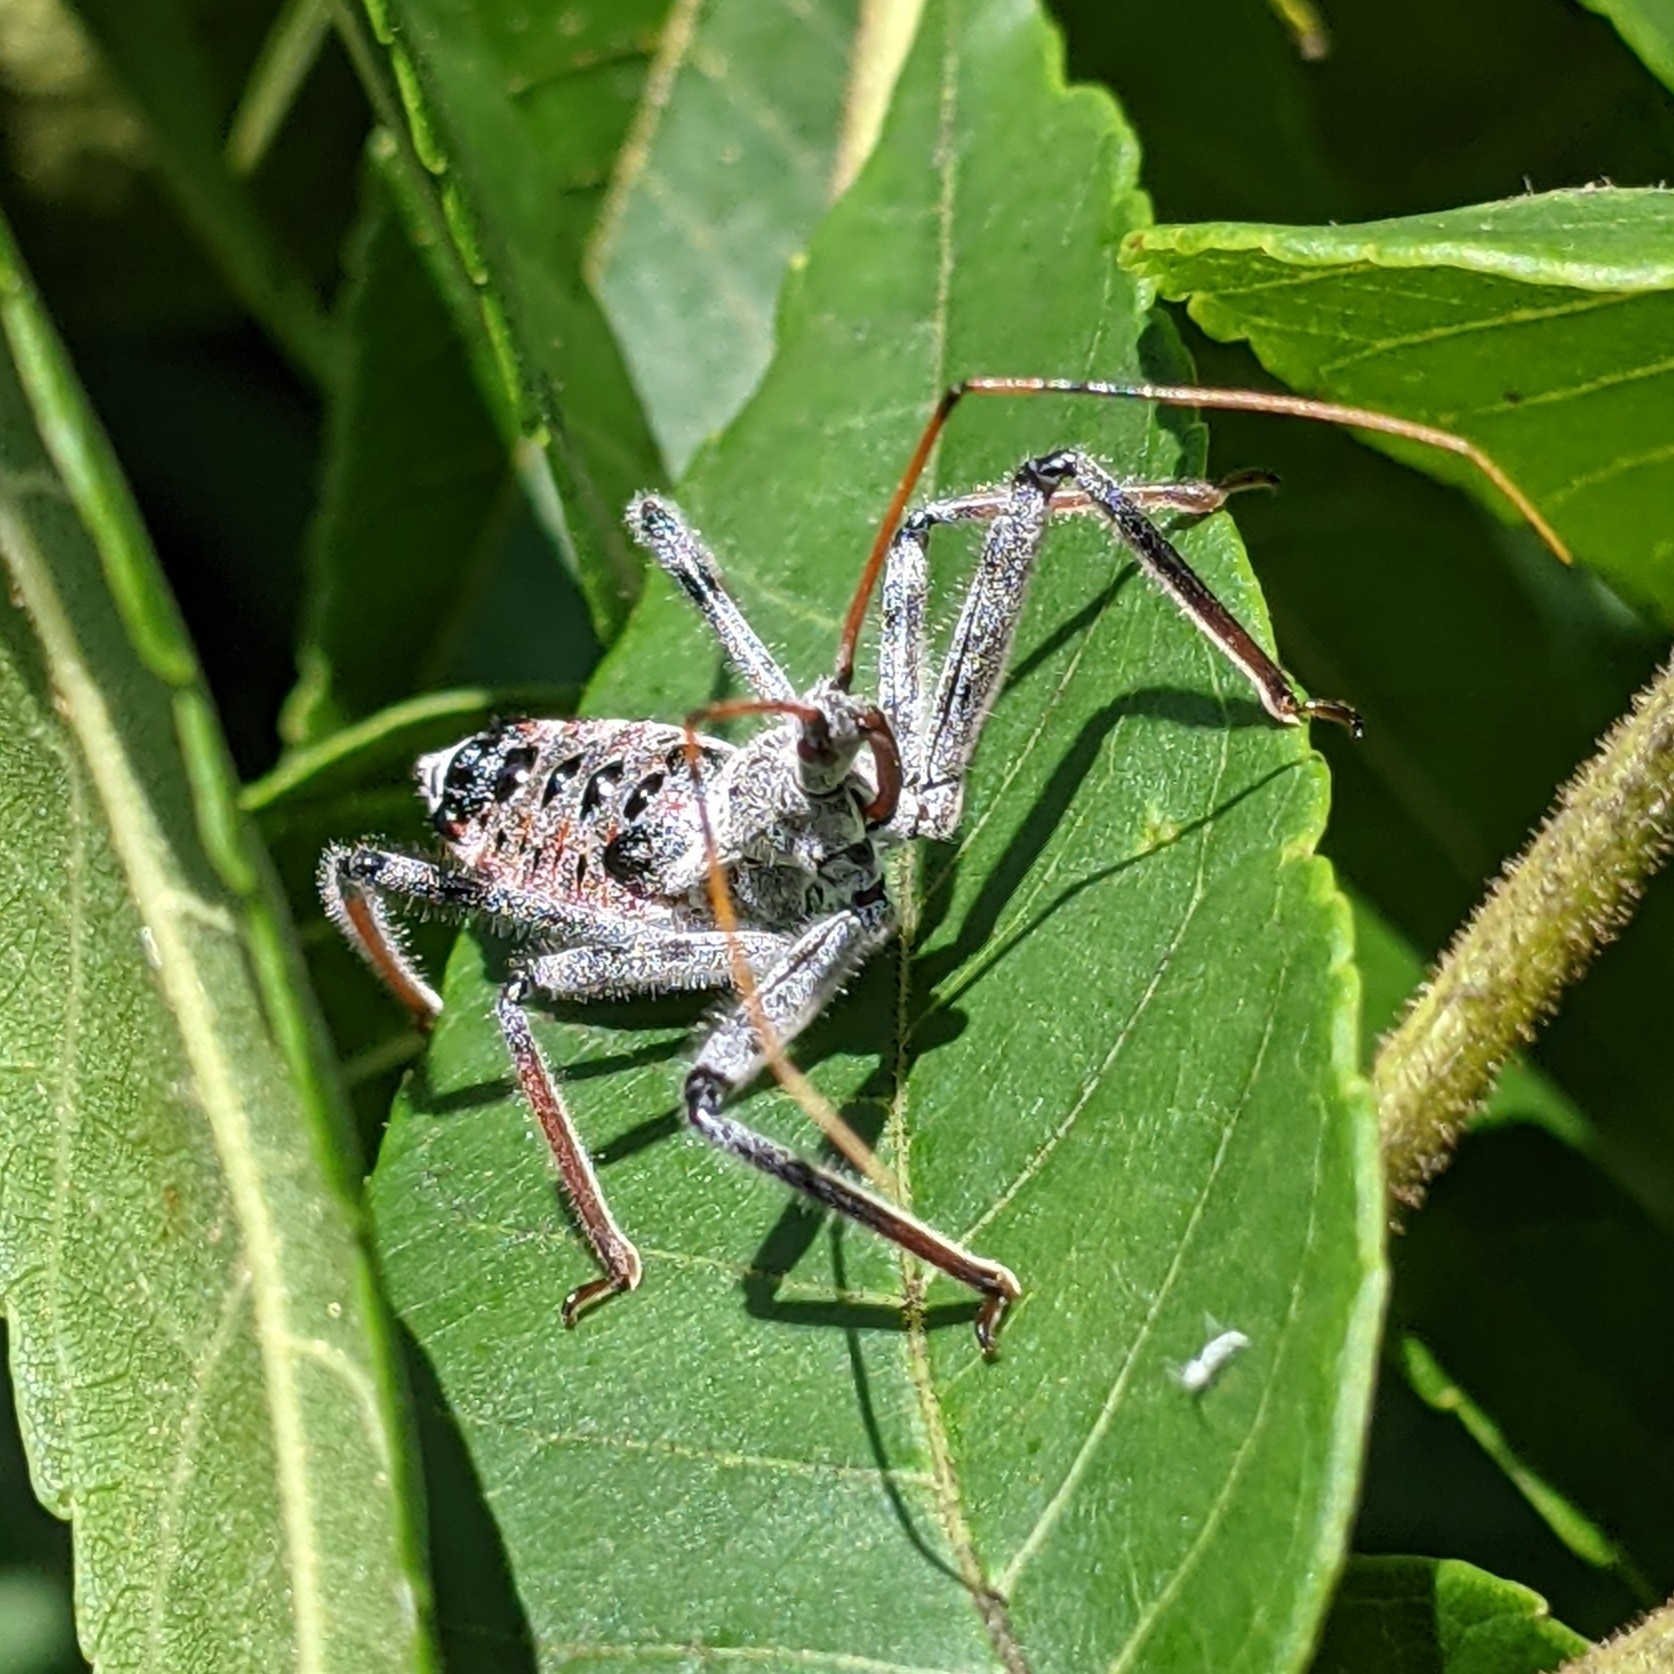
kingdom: Animalia
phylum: Arthropoda
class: Insecta
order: Hemiptera
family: Reduviidae
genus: Arilus
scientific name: Arilus cristatus
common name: North american wheel bug
